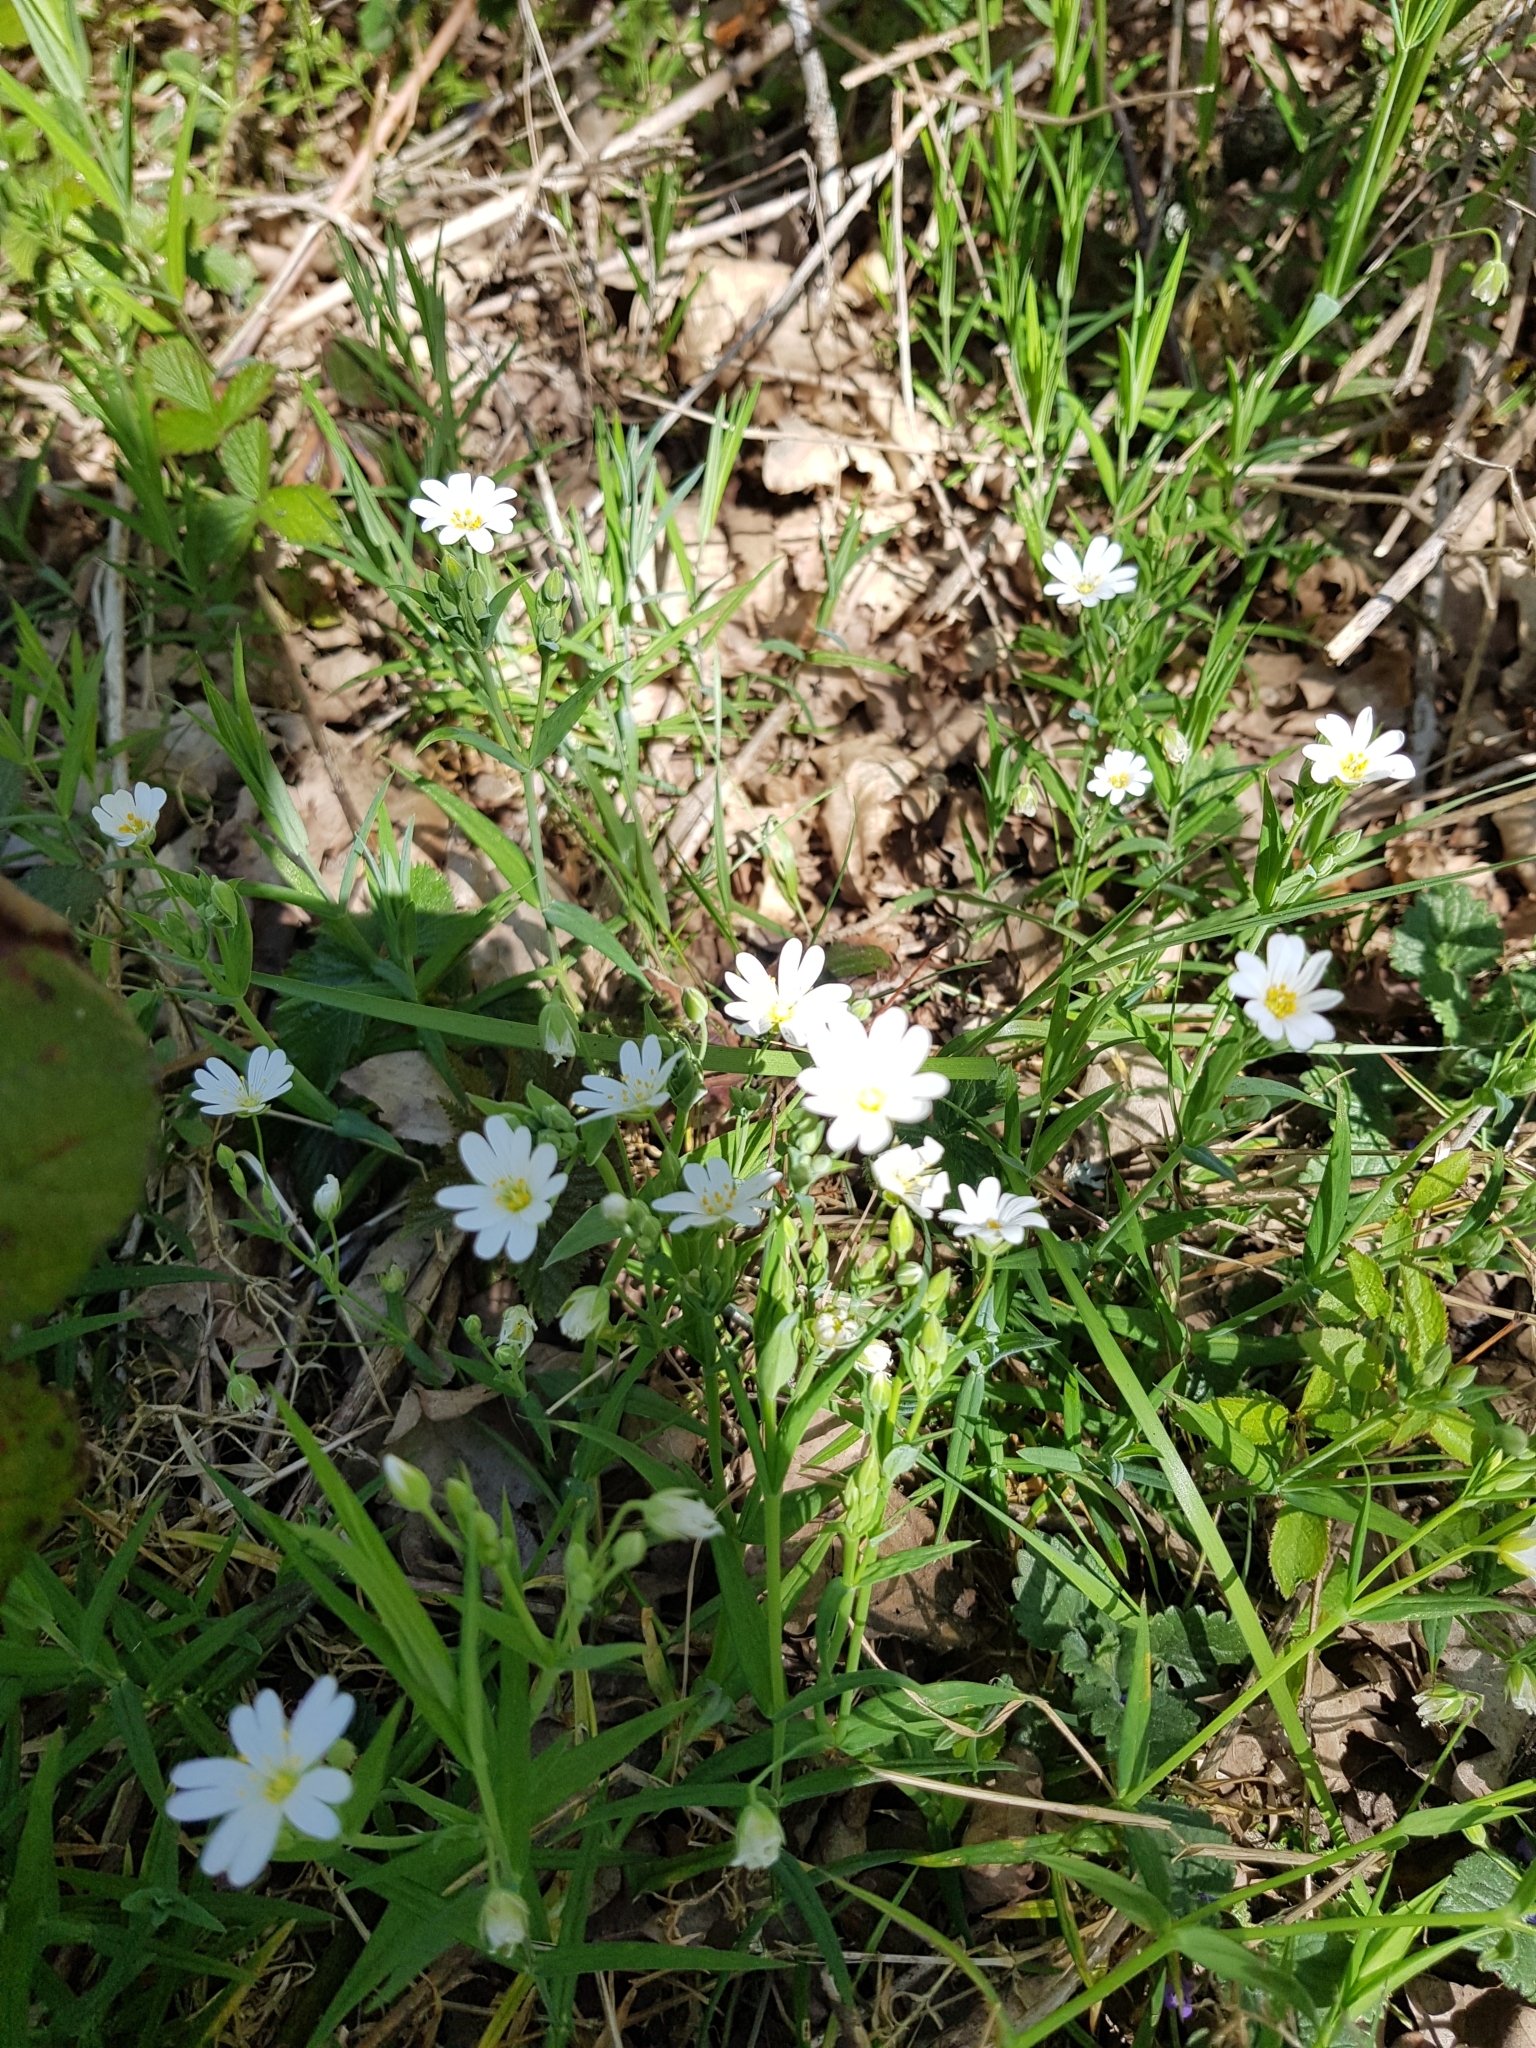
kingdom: Plantae
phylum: Tracheophyta
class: Magnoliopsida
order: Caryophyllales
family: Caryophyllaceae
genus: Rabelera
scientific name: Rabelera holostea
